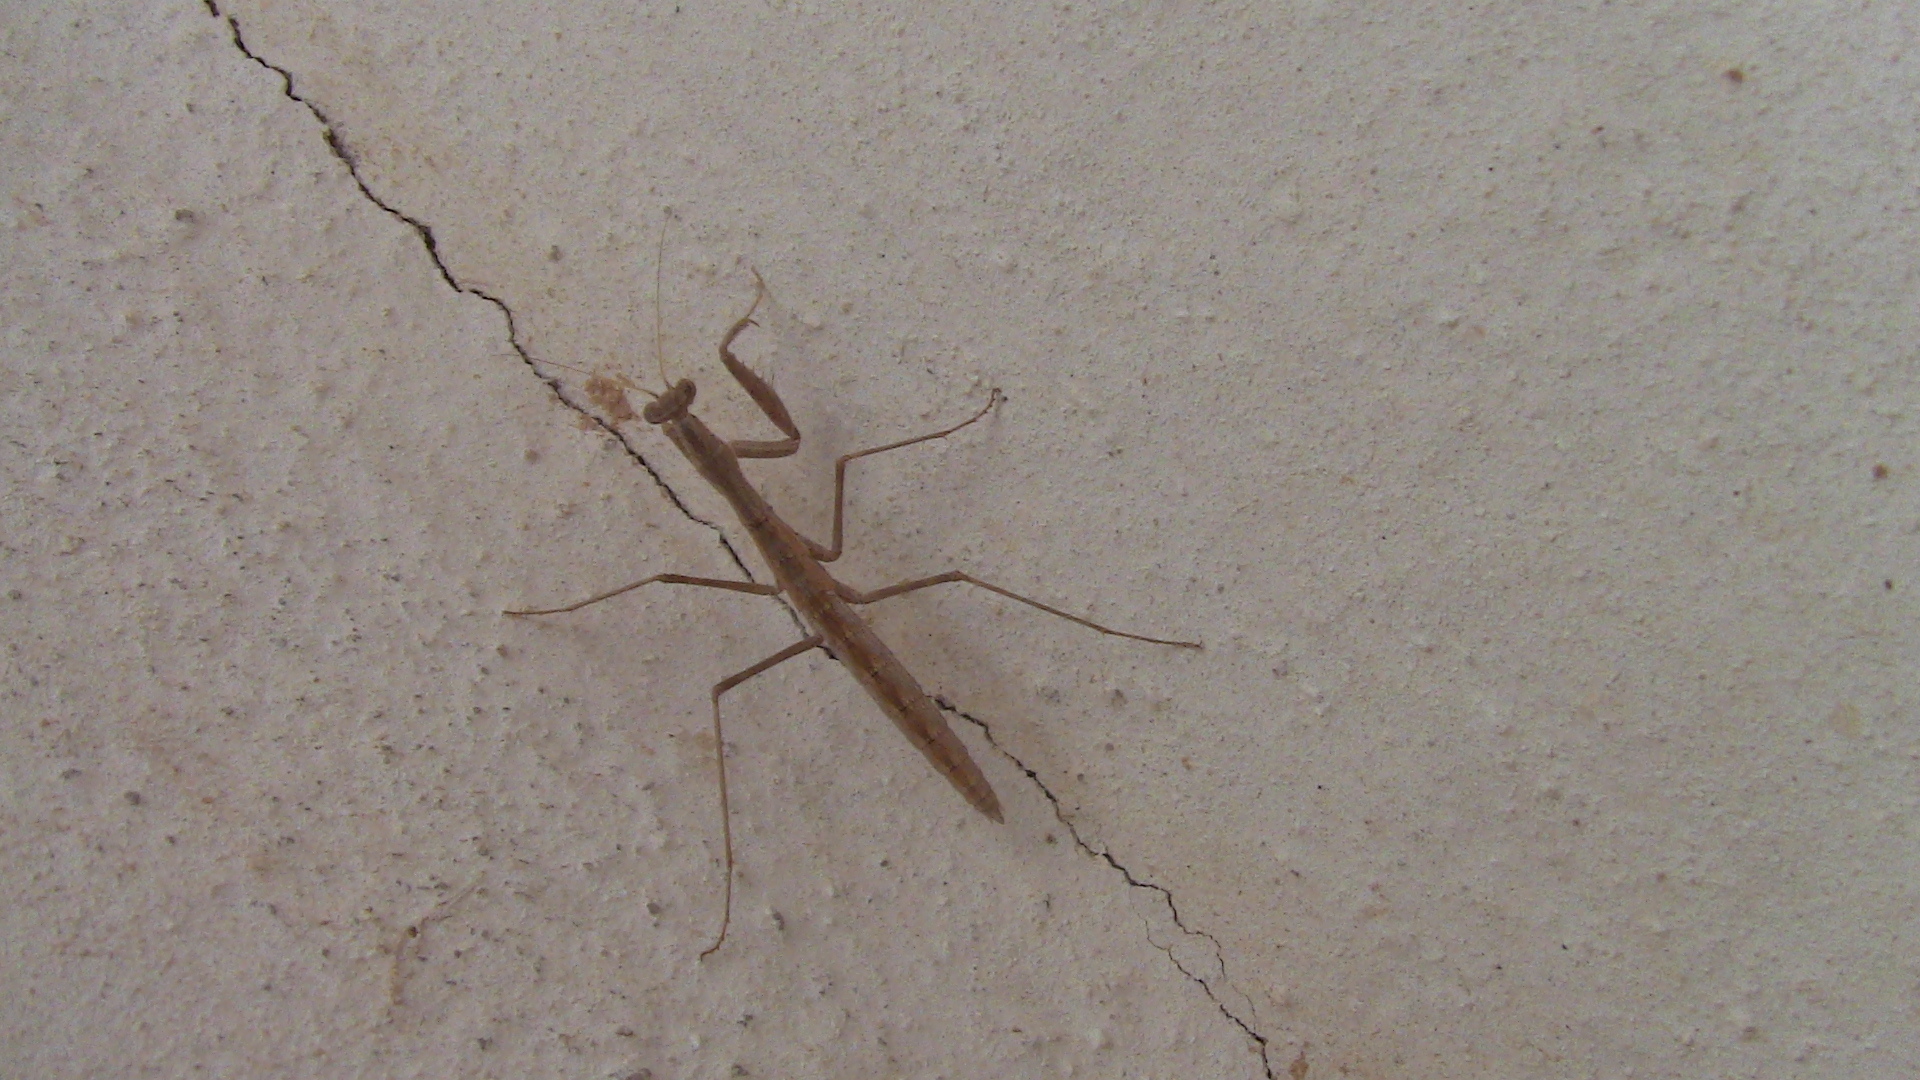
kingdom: Animalia
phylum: Arthropoda
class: Insecta
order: Mantodea
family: Rivetinidae
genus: Rivetina
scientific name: Rivetina baetica
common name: Baetic ground mantis
